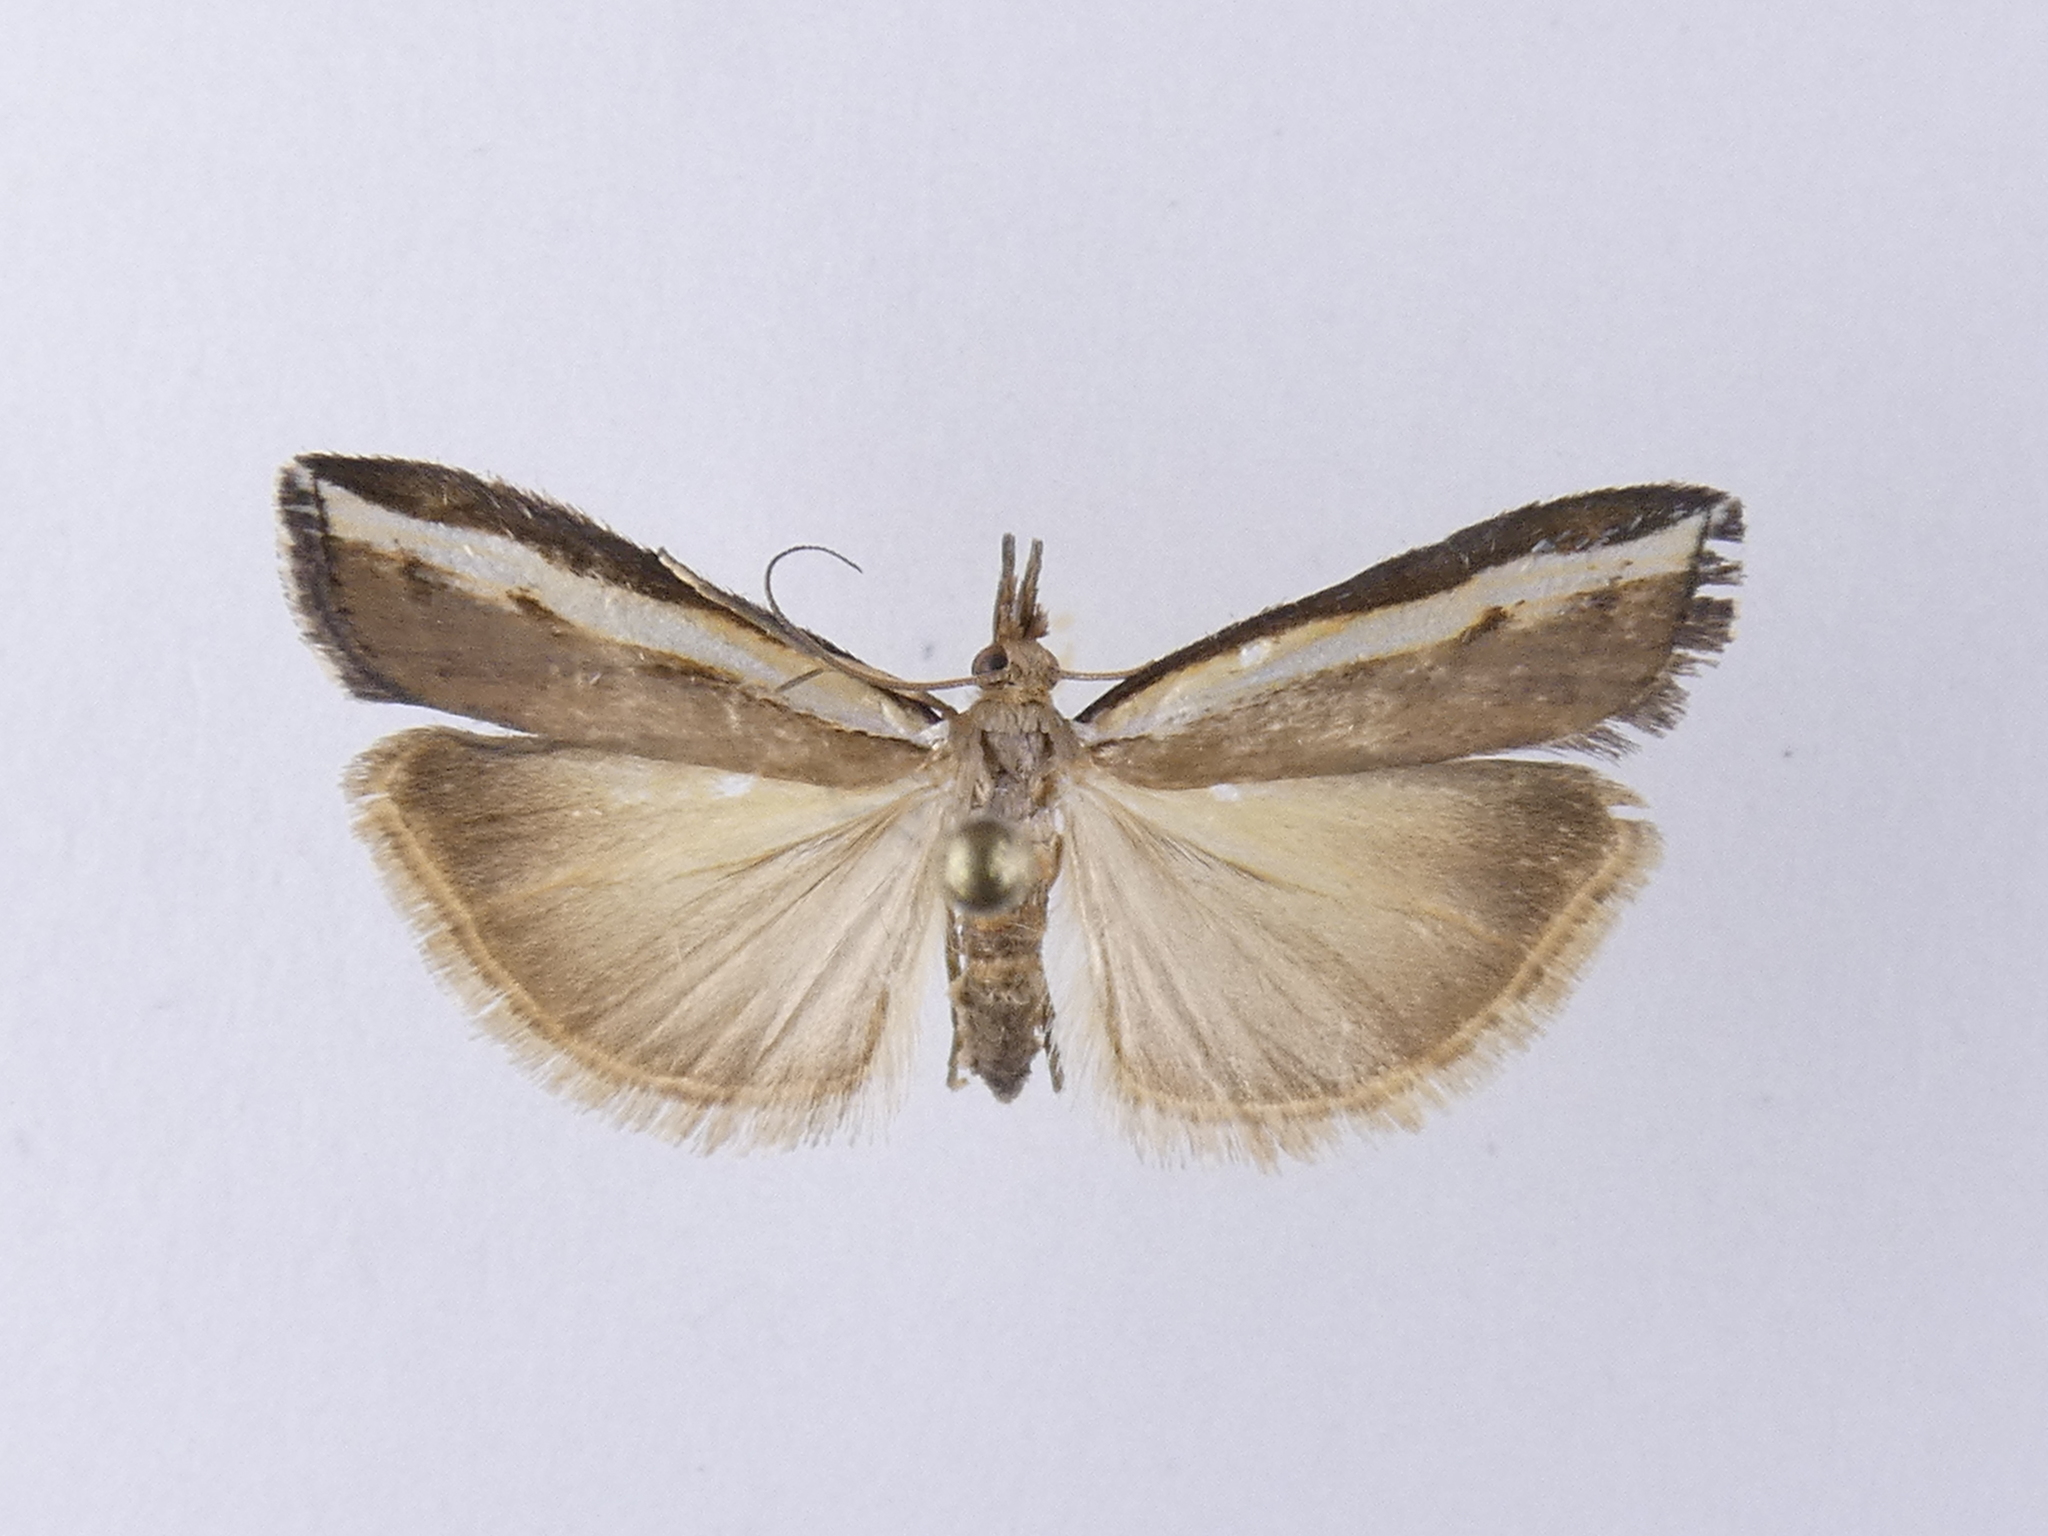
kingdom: Animalia
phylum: Arthropoda
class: Insecta
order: Lepidoptera
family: Crambidae
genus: Orocrambus
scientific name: Orocrambus flexuosellus
